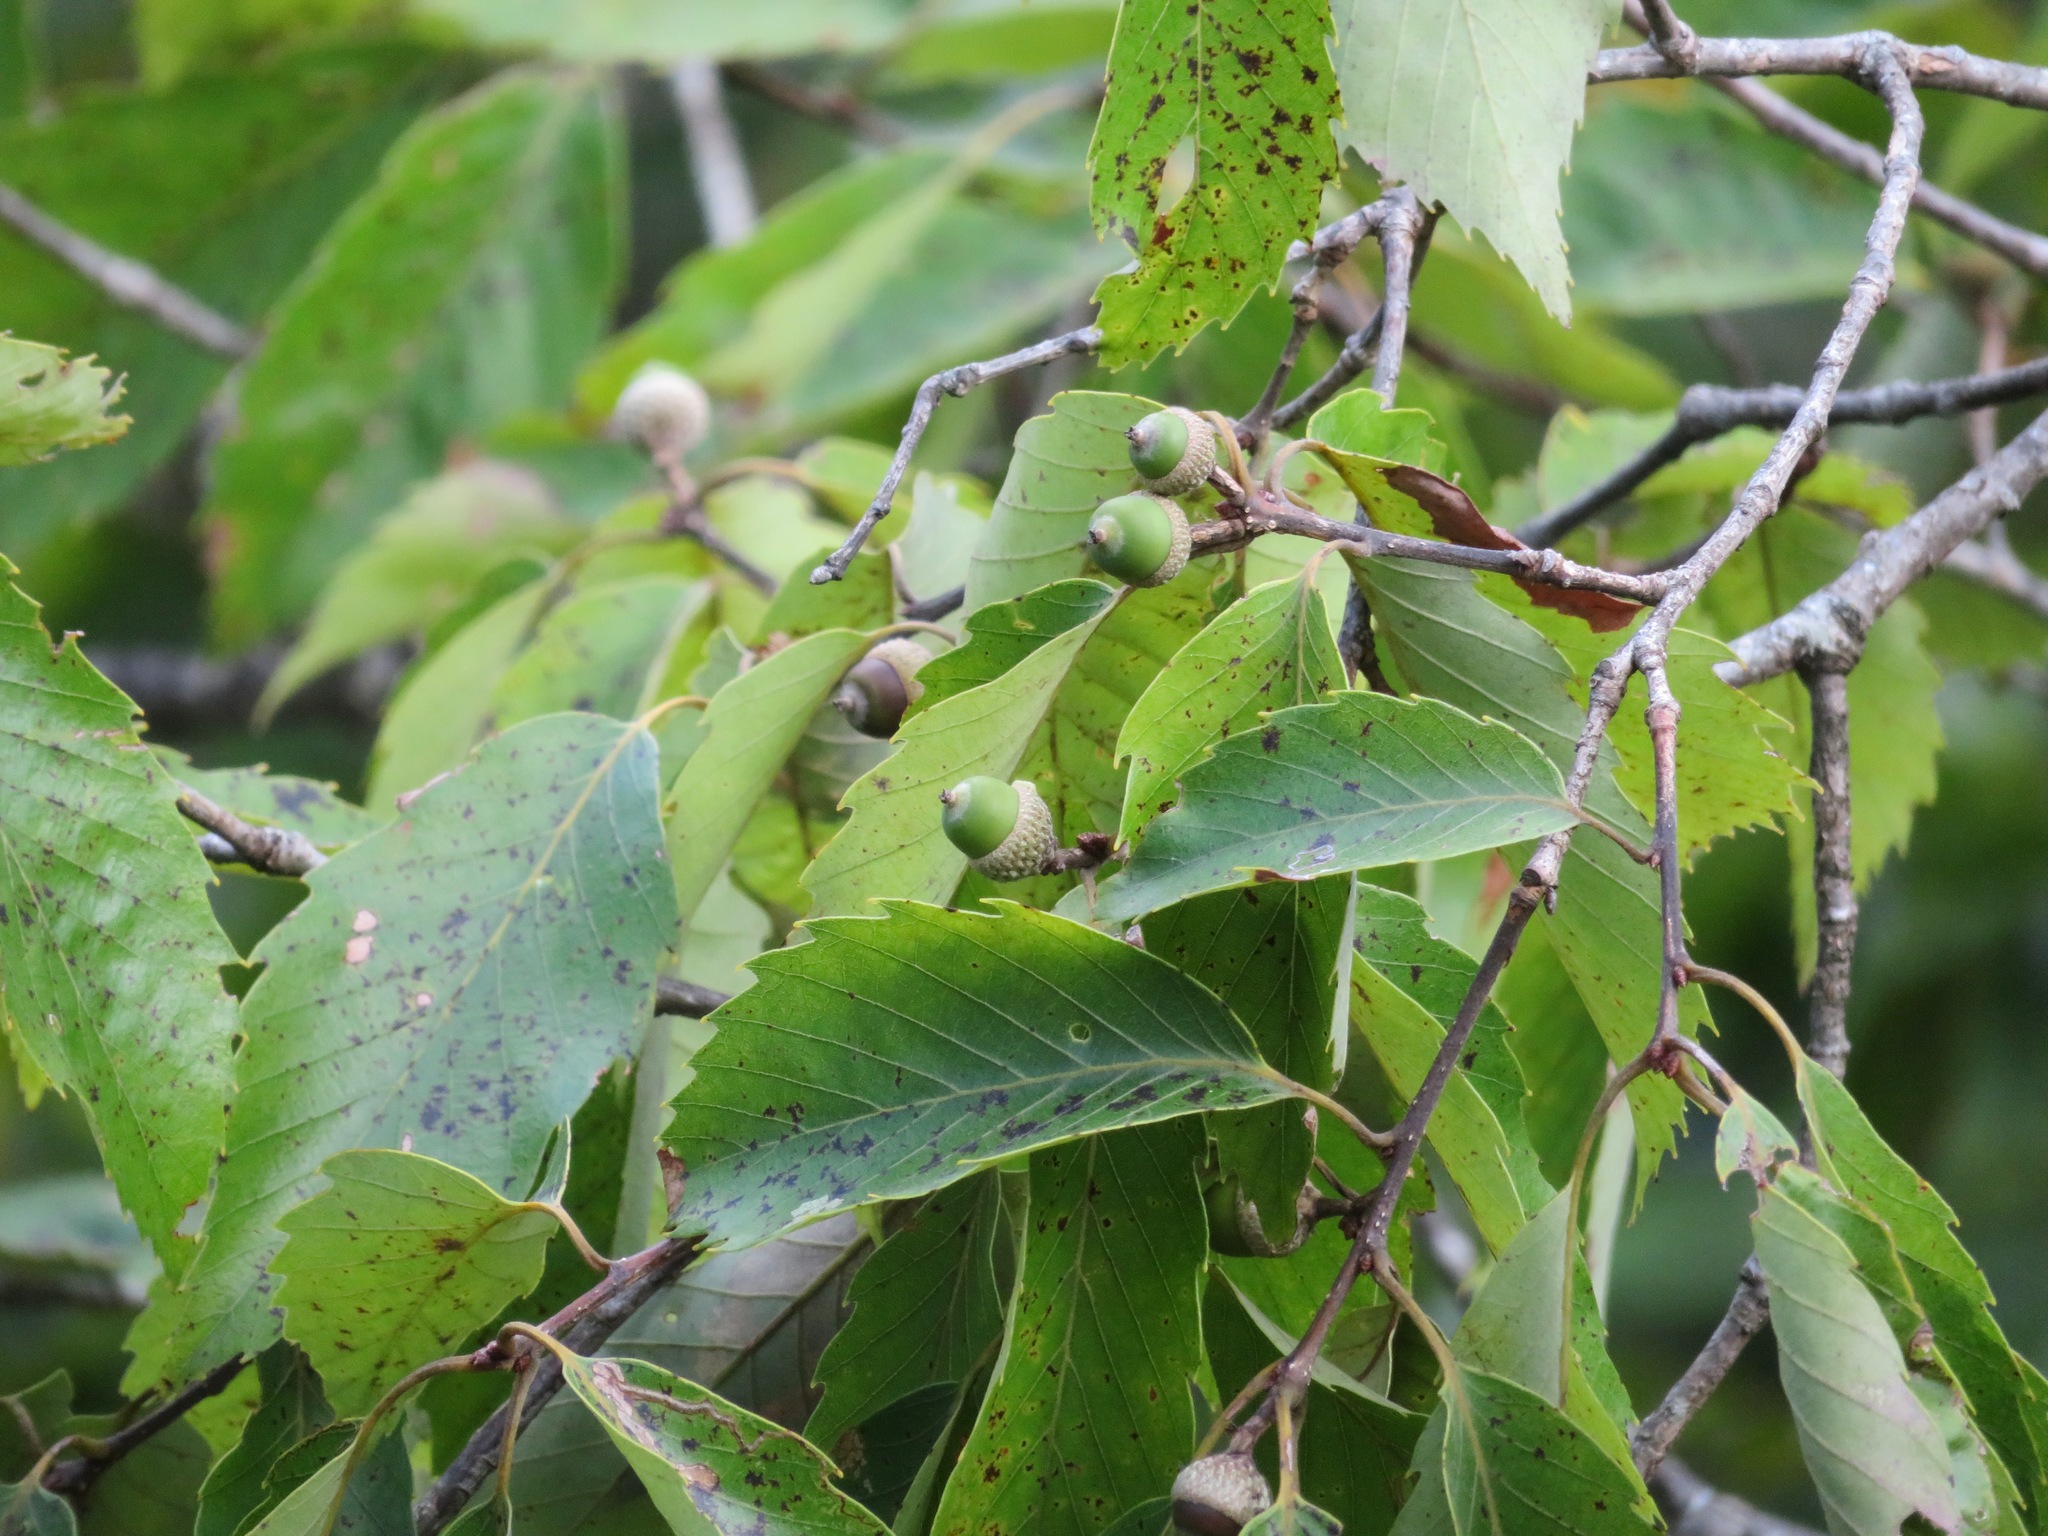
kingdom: Plantae
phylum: Tracheophyta
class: Magnoliopsida
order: Fagales
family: Fagaceae
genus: Quercus
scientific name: Quercus serrata
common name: Bao li
